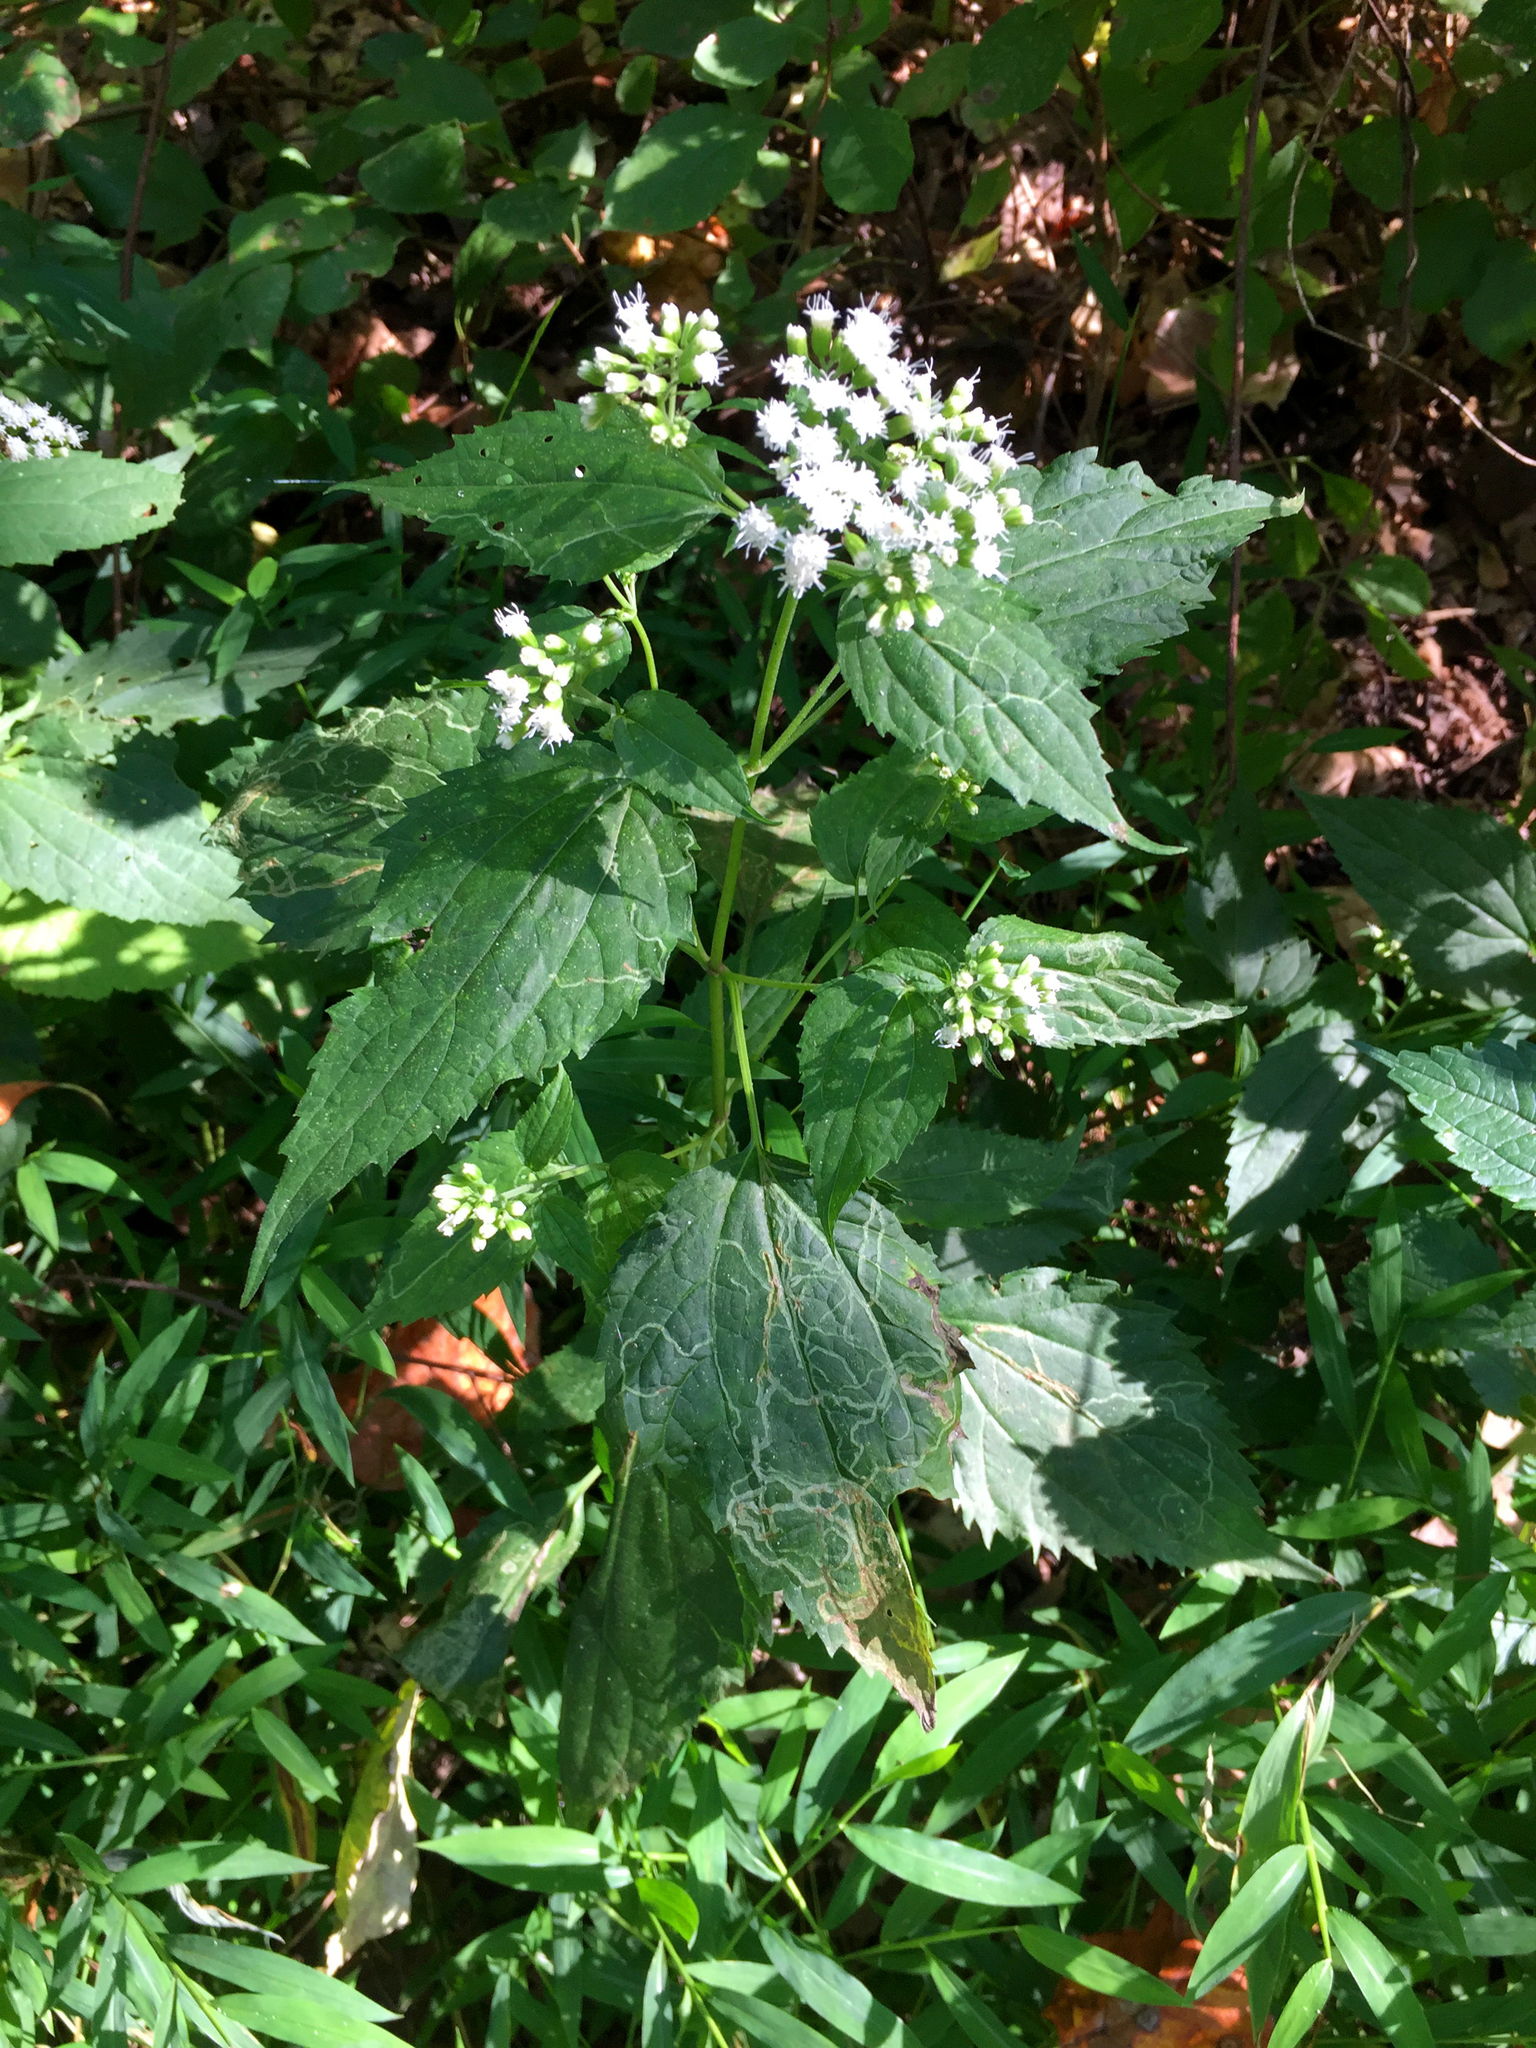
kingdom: Plantae
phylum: Tracheophyta
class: Magnoliopsida
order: Asterales
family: Asteraceae
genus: Ageratina
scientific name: Ageratina altissima
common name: White snakeroot
